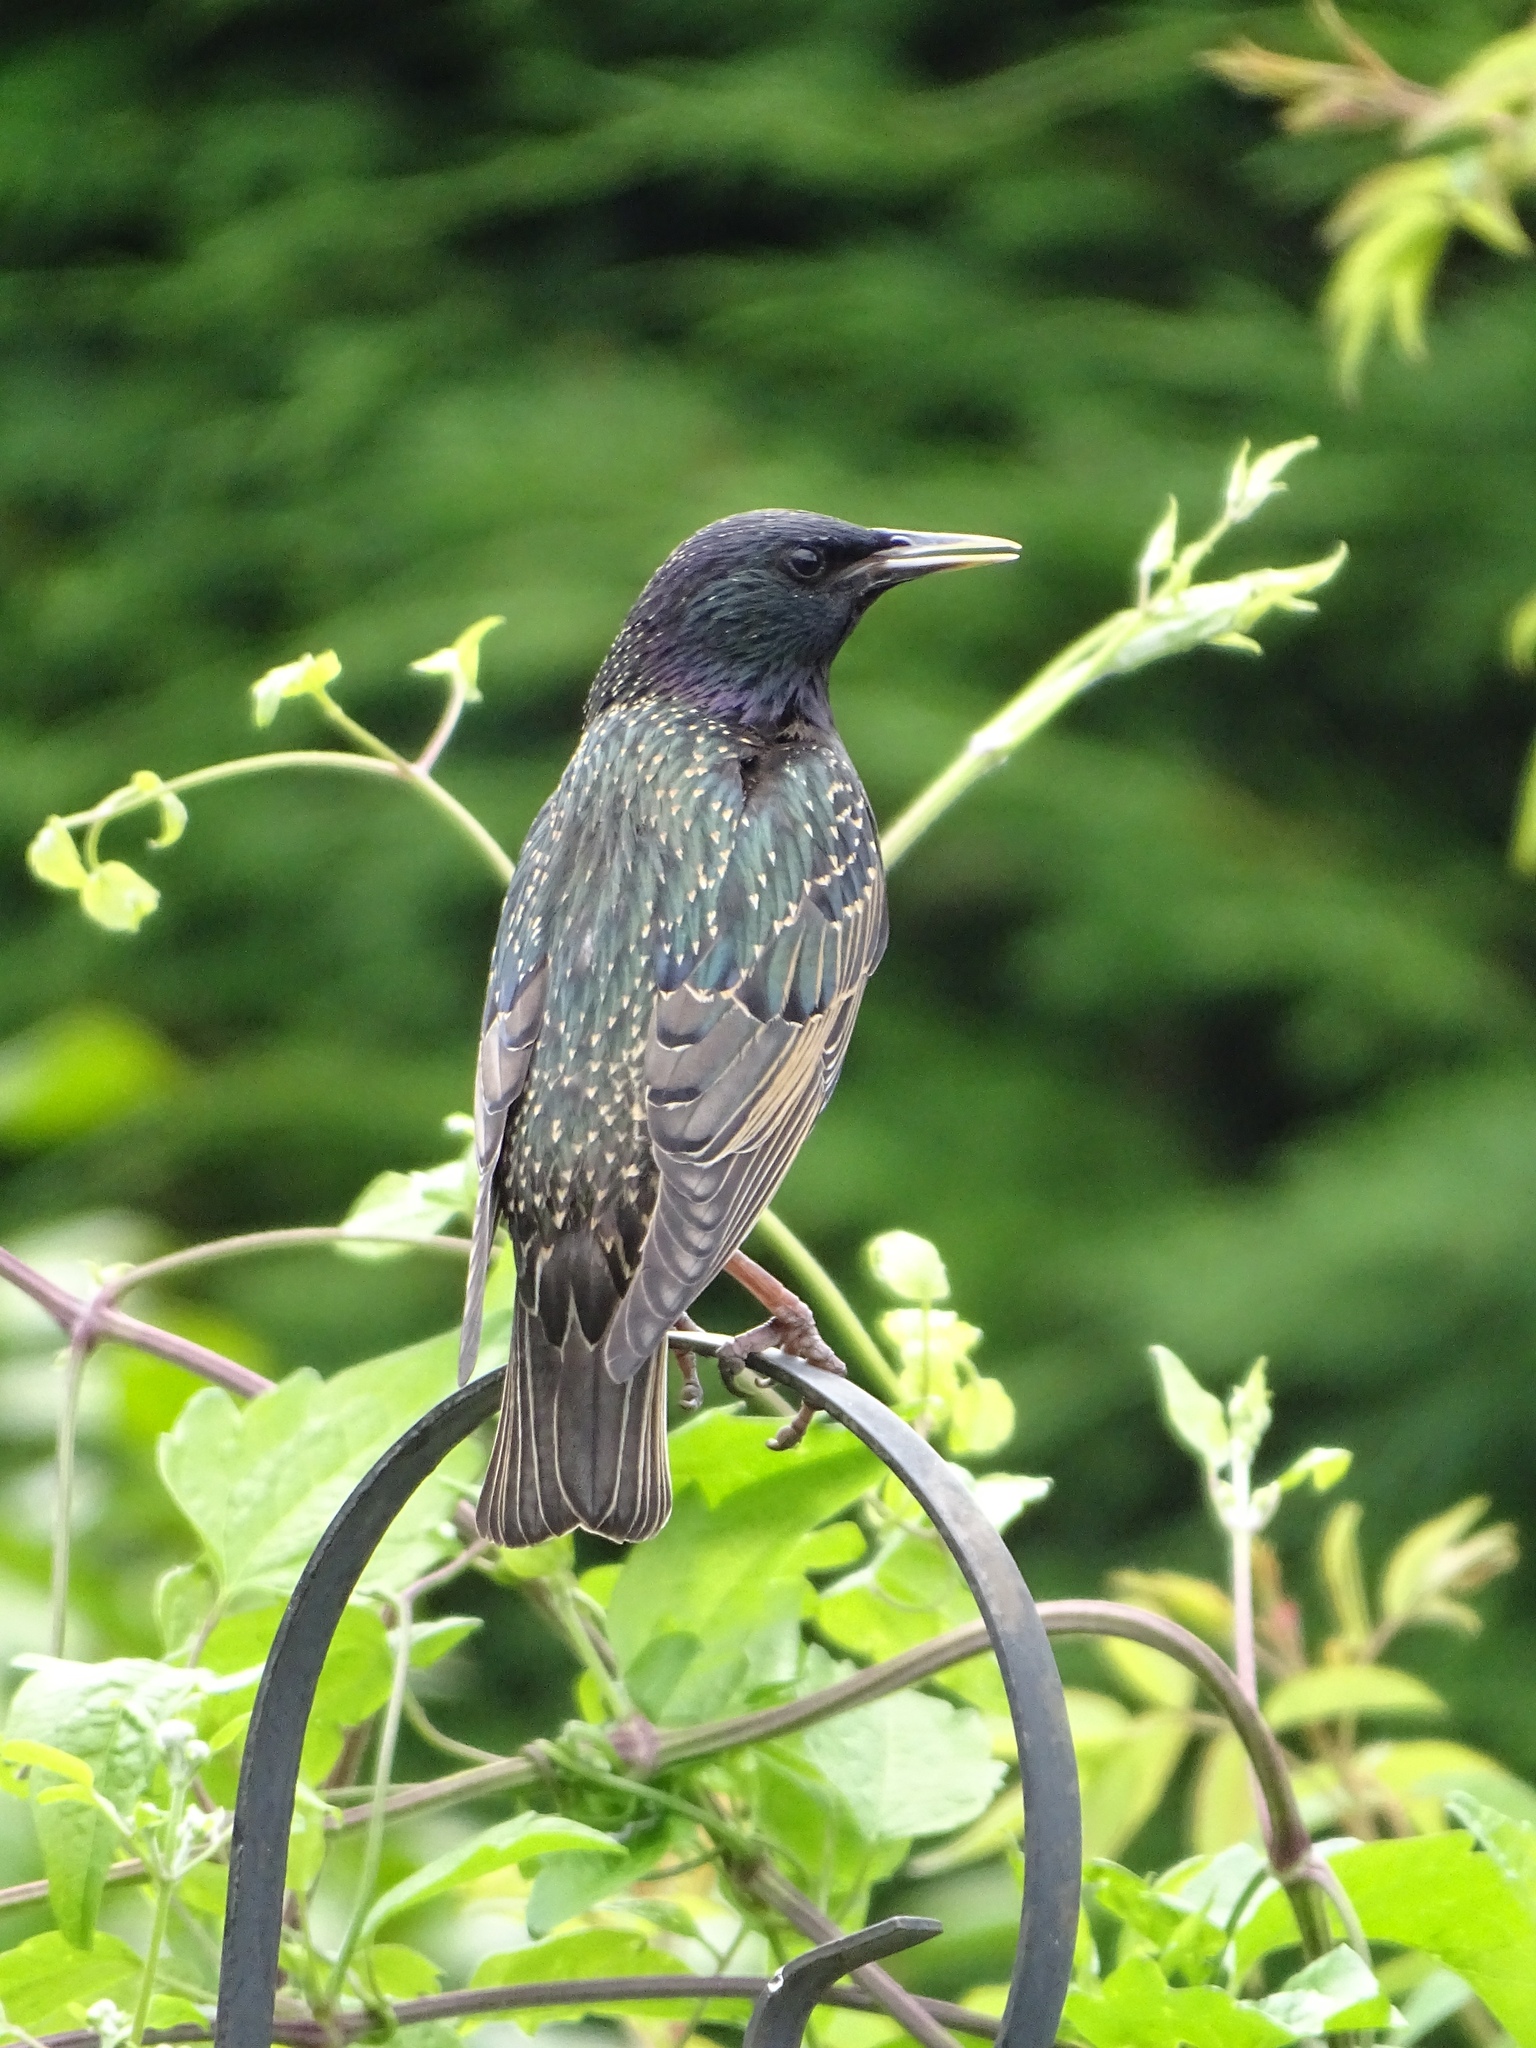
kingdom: Animalia
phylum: Chordata
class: Aves
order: Passeriformes
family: Sturnidae
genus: Sturnus
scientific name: Sturnus vulgaris
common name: Common starling
